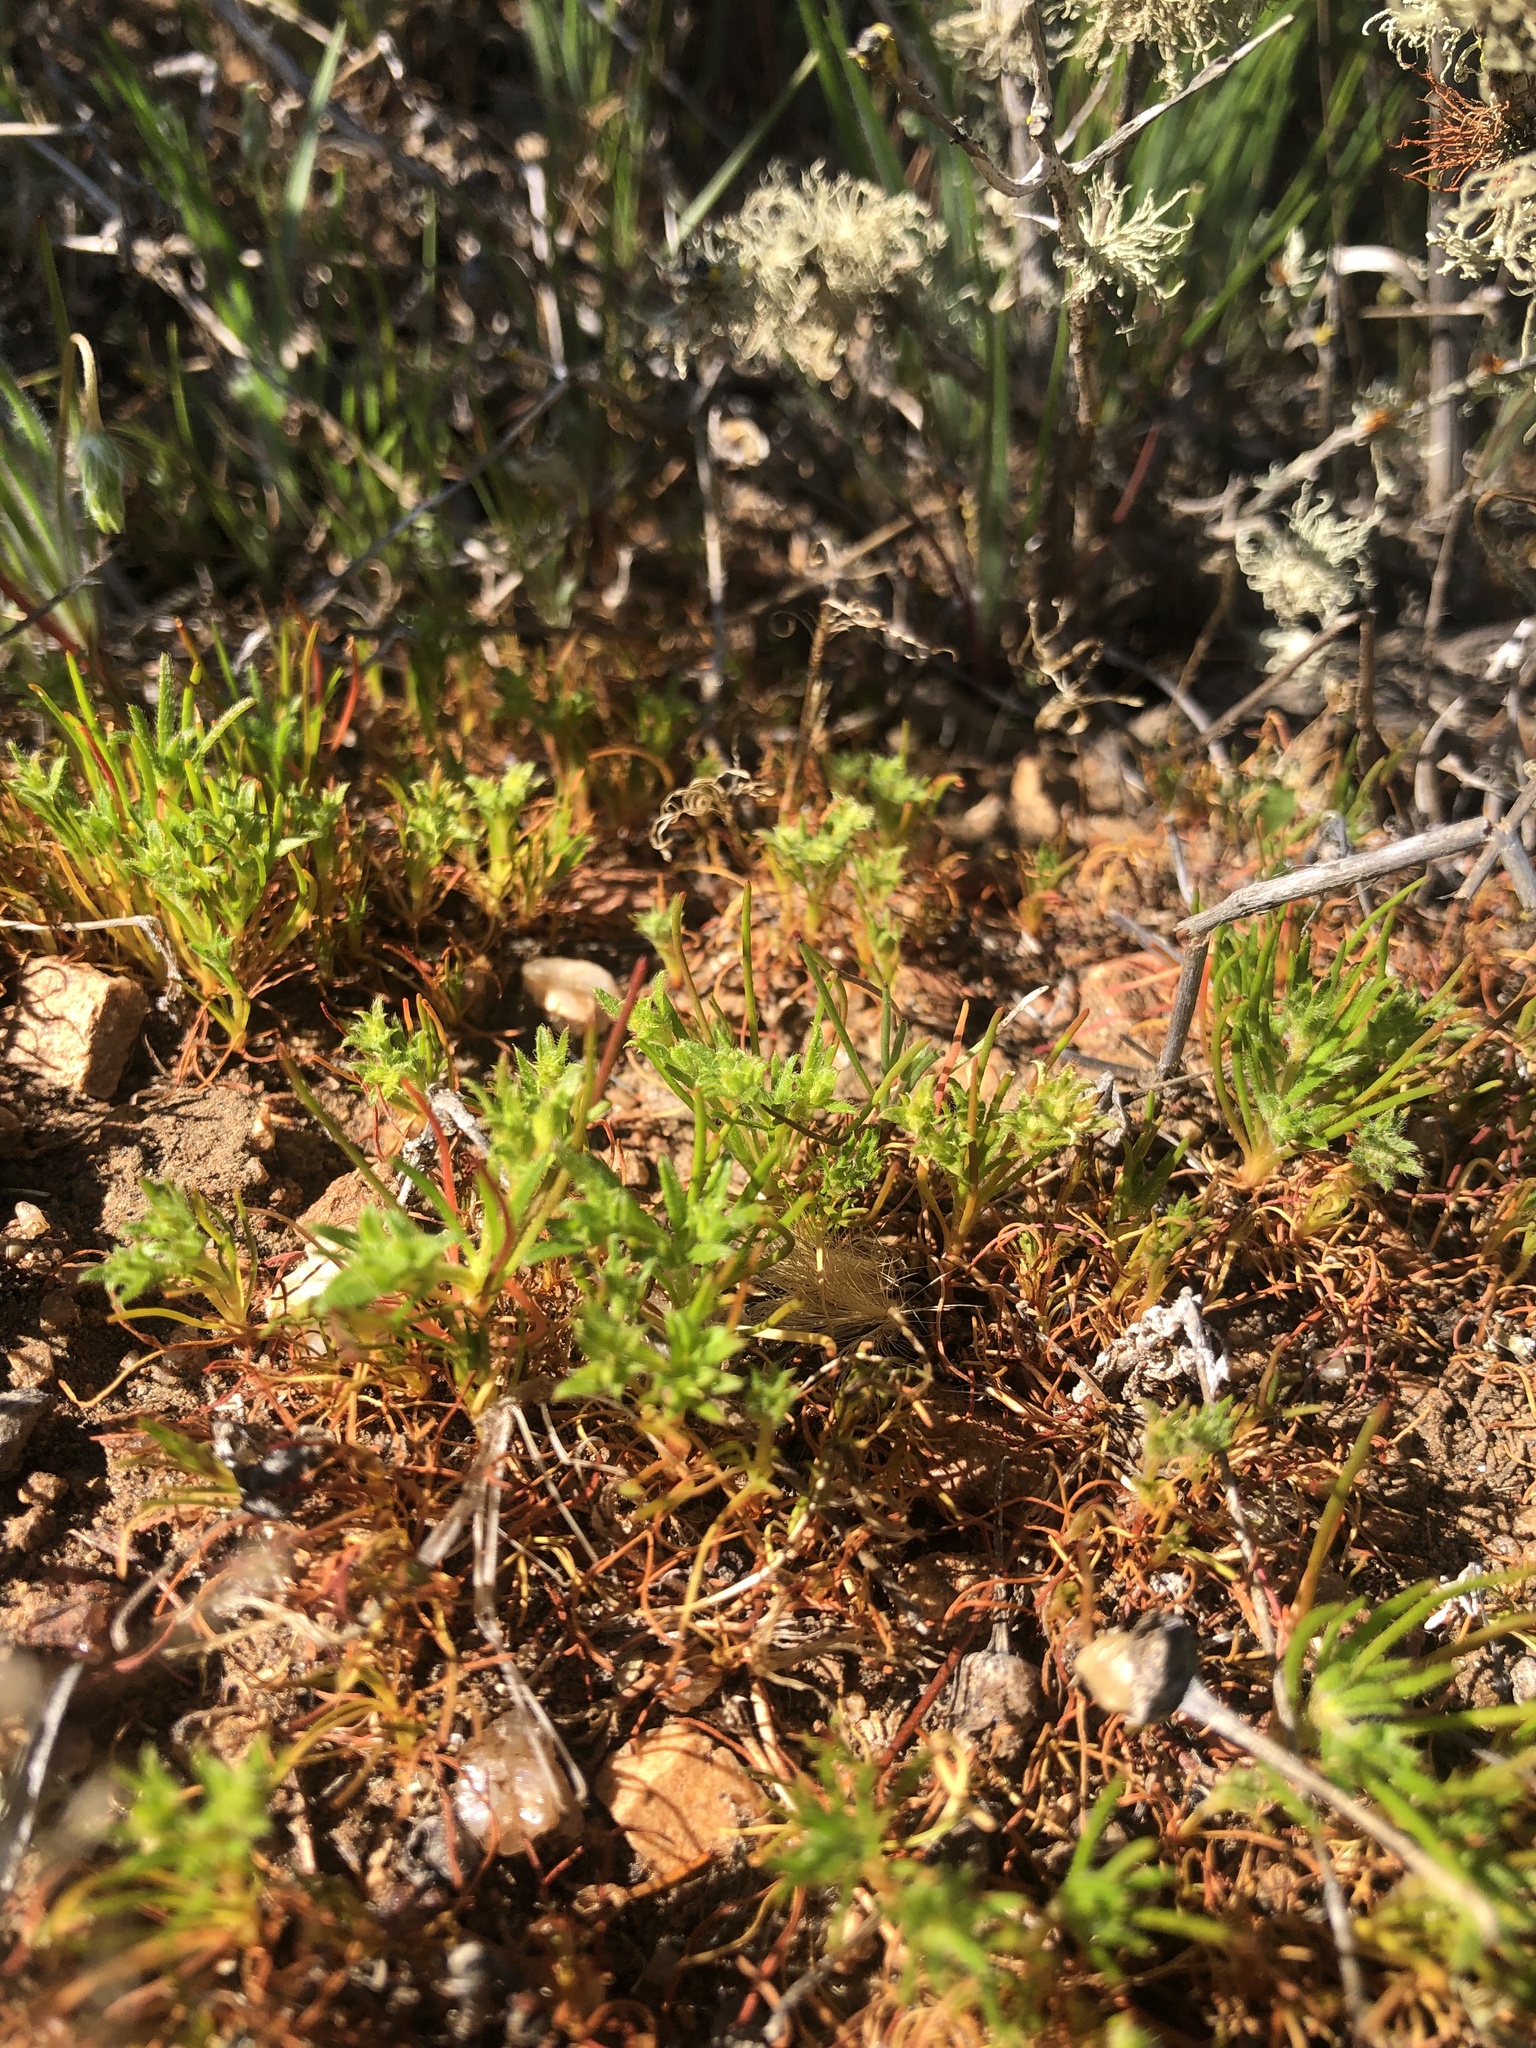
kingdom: Plantae
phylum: Tracheophyta
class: Magnoliopsida
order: Caryophyllales
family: Polygonaceae
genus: Lastarriaea
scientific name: Lastarriaea chilensis
